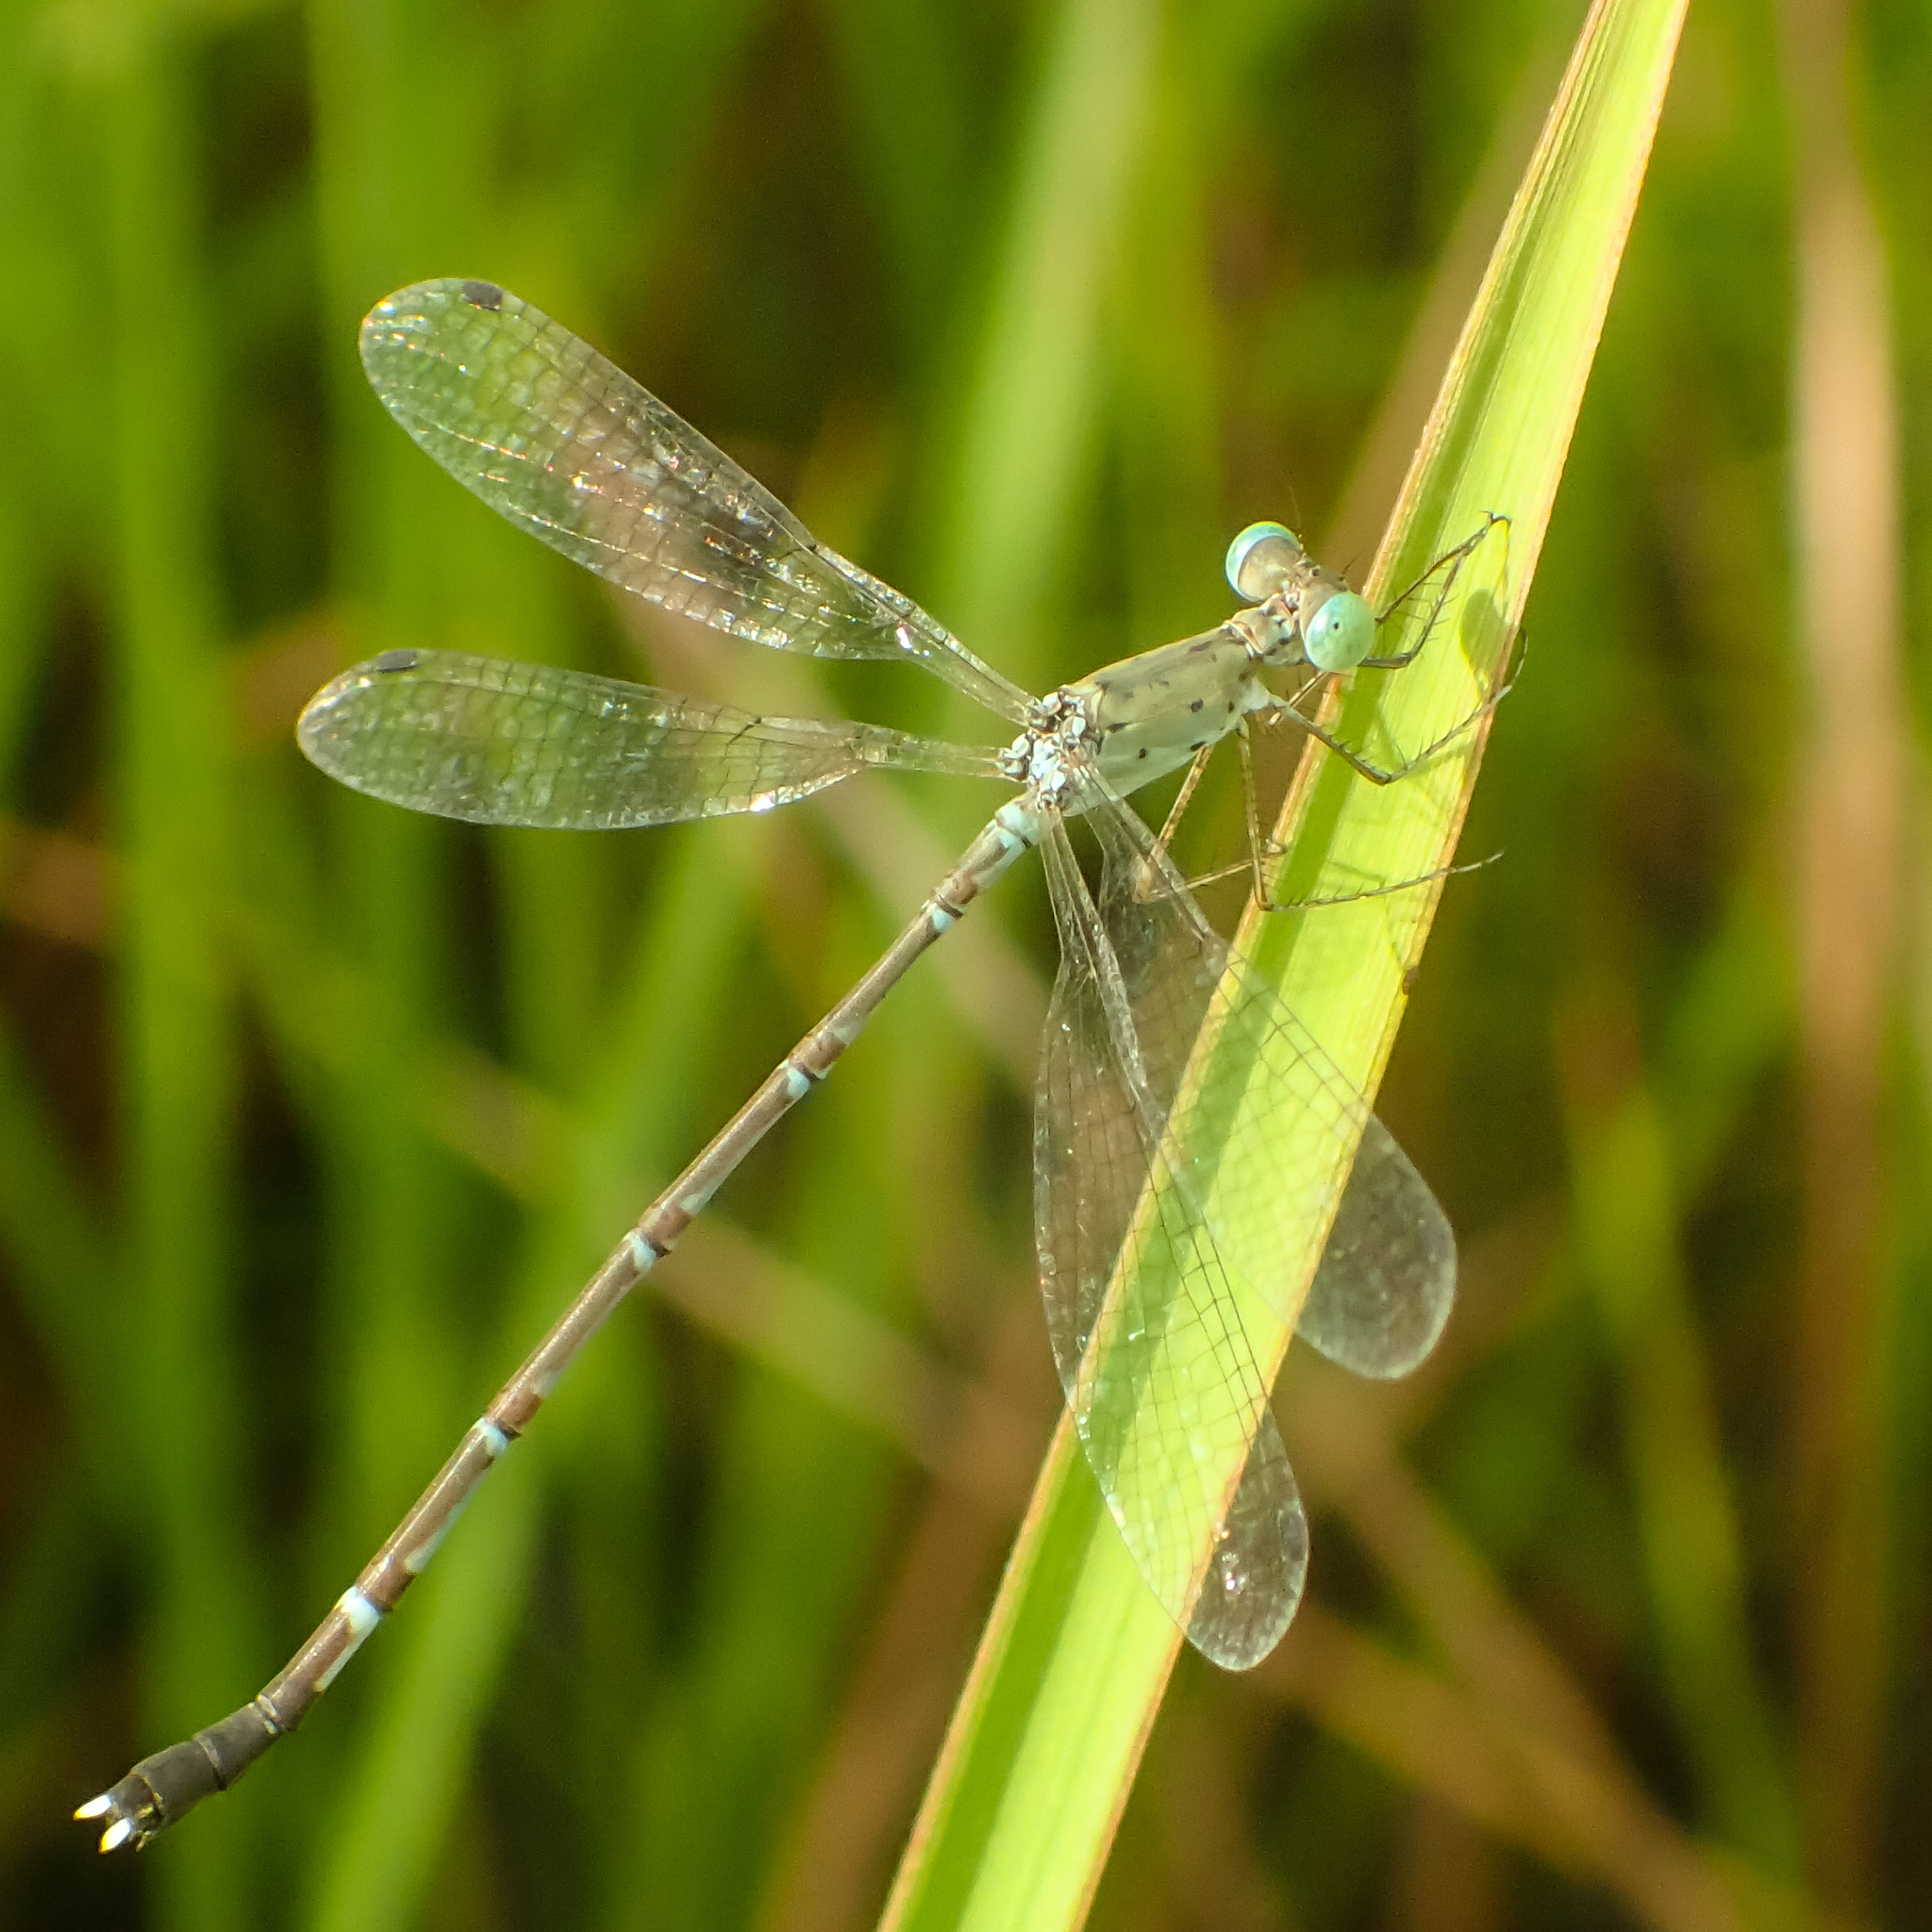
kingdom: Animalia
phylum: Arthropoda
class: Insecta
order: Odonata
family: Lestidae
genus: Platylestes
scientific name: Platylestes platystylus
